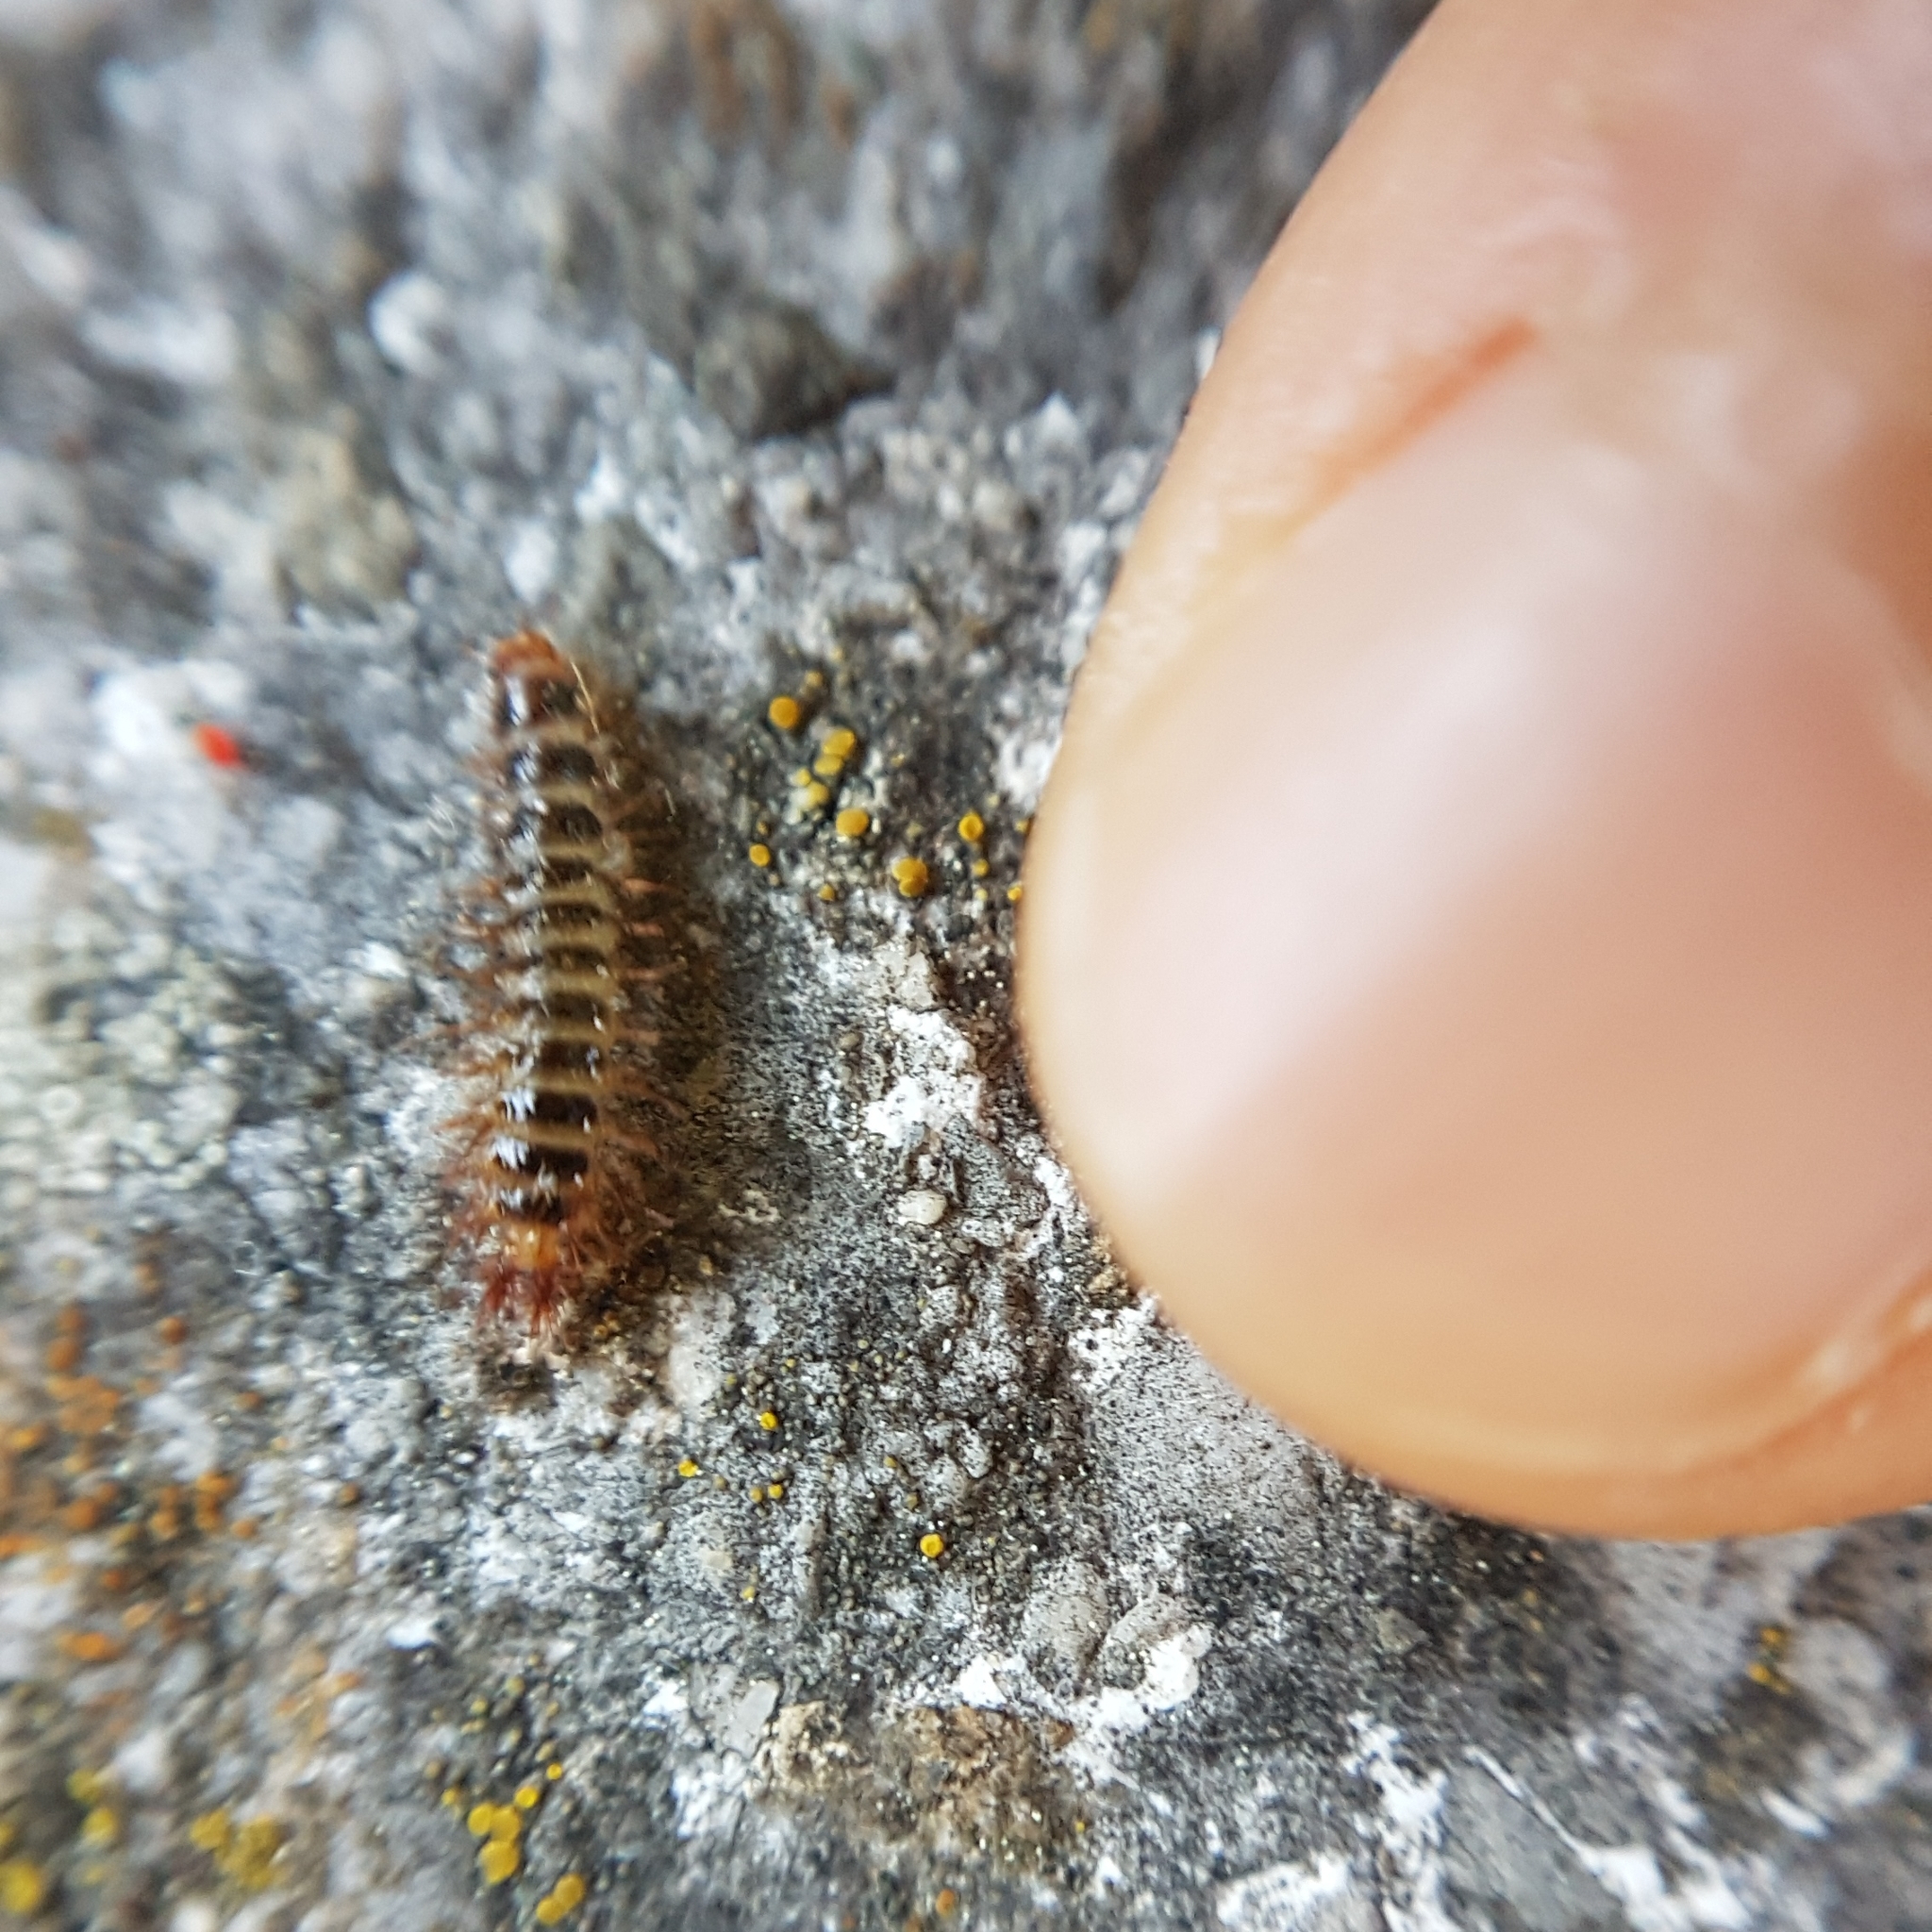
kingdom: Animalia
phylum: Arthropoda
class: Insecta
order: Coleoptera
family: Drilidae
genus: Drilus
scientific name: Drilus flavescens
